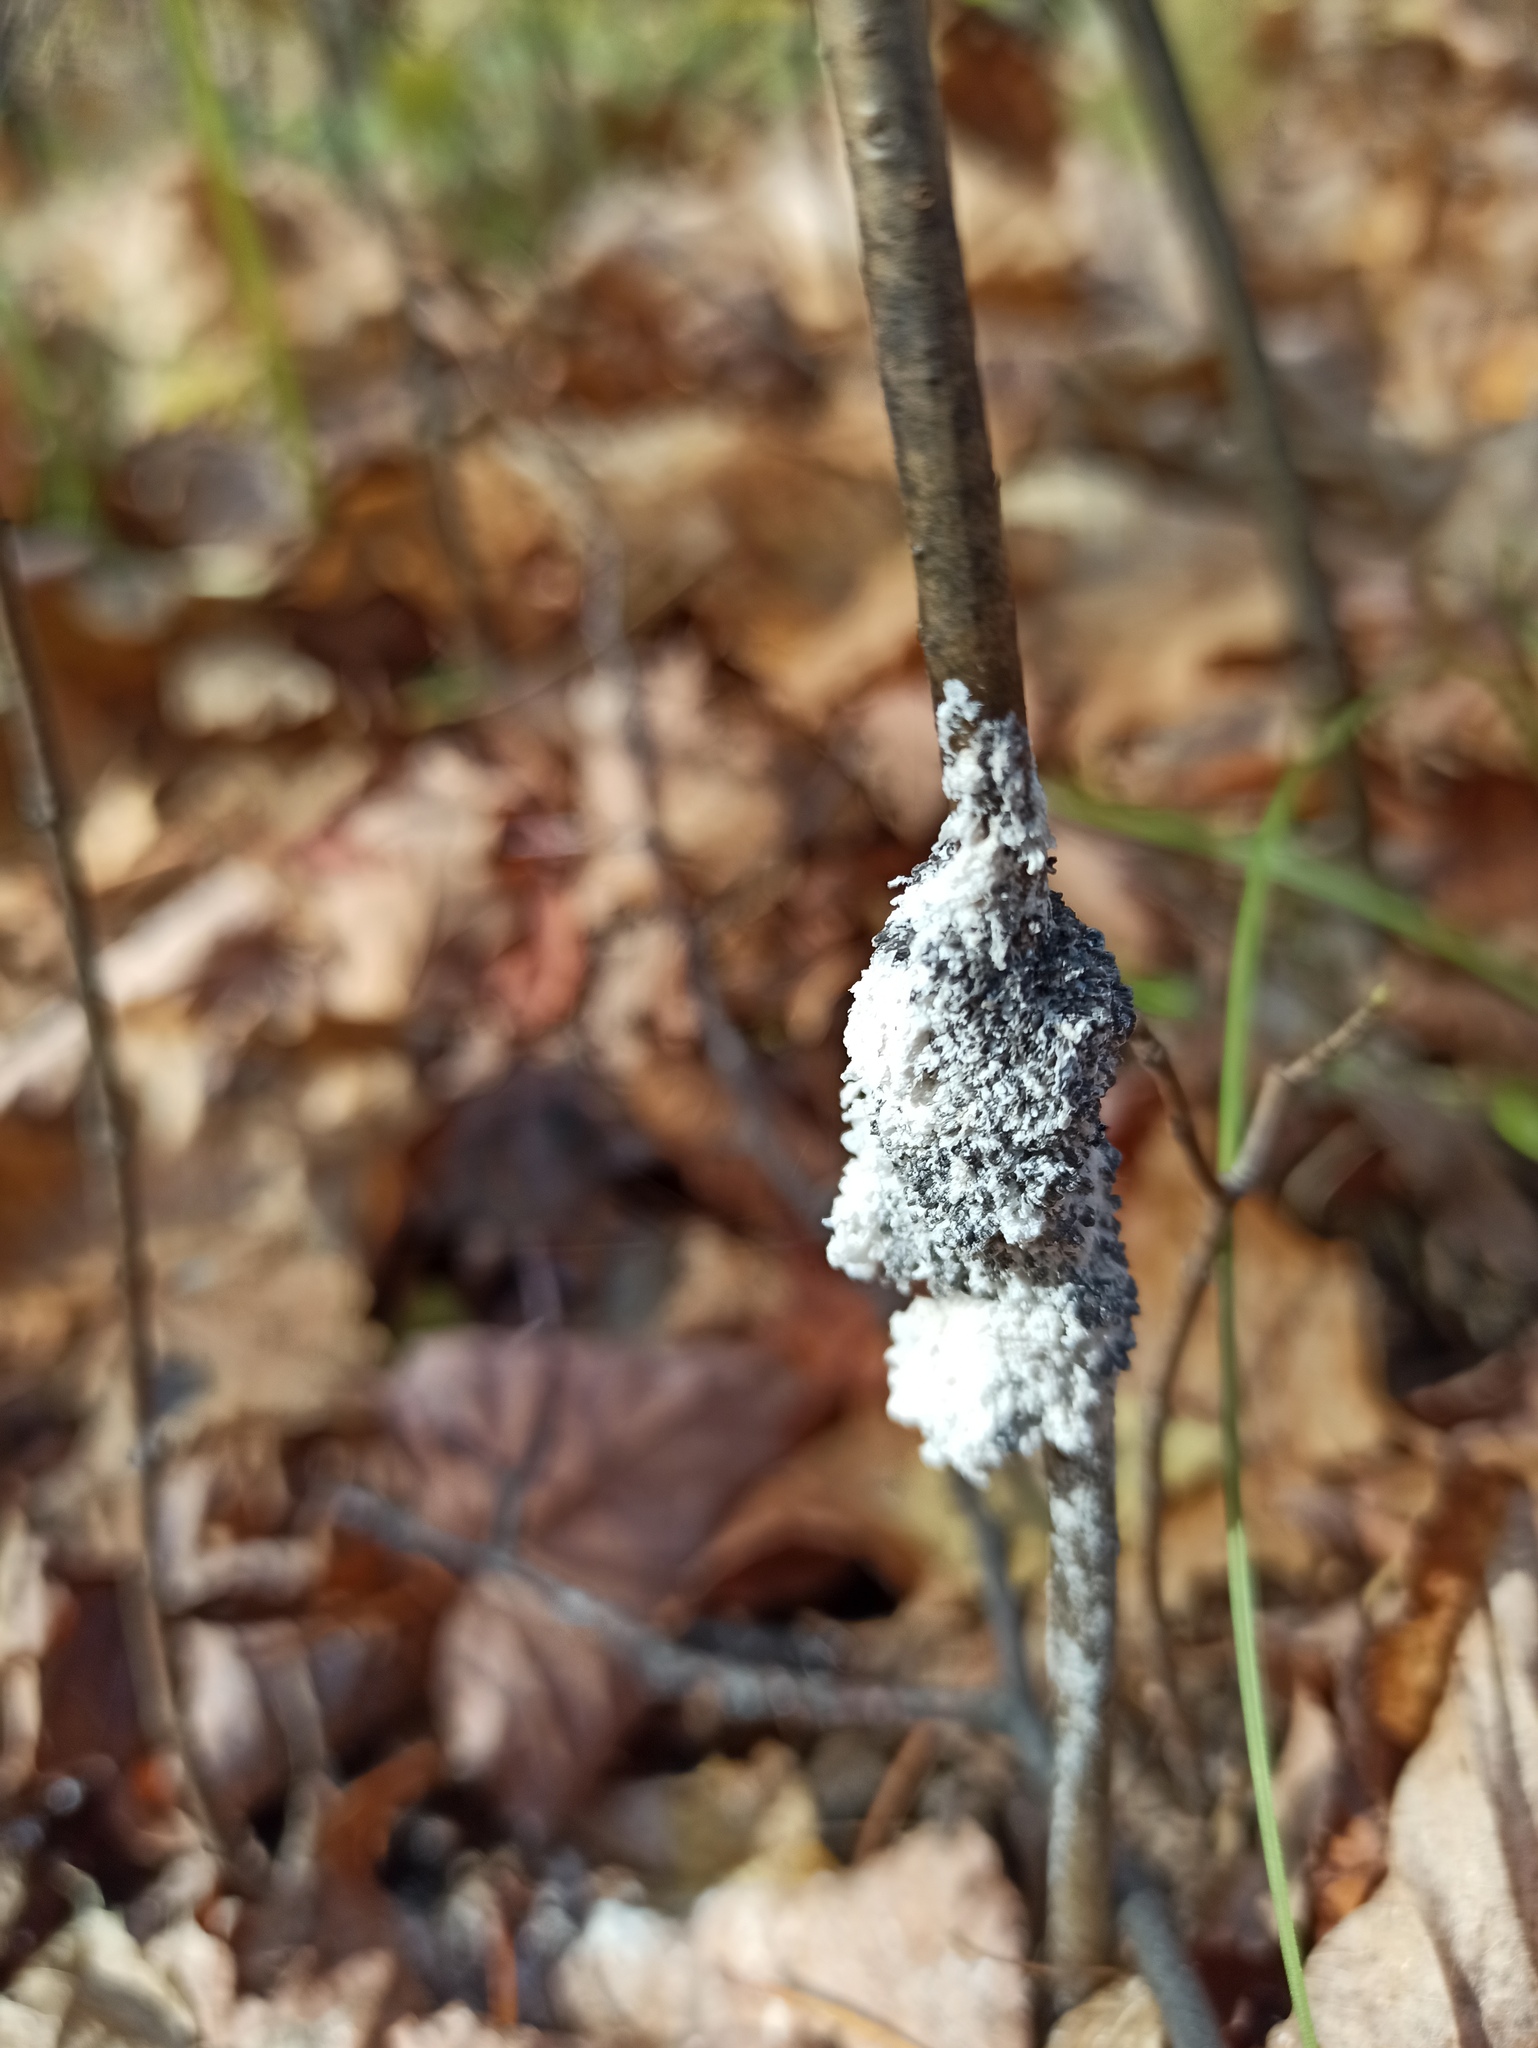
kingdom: Protozoa
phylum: Mycetozoa
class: Myxomycetes
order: Physarales
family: Physaraceae
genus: Didymium
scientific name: Didymium
